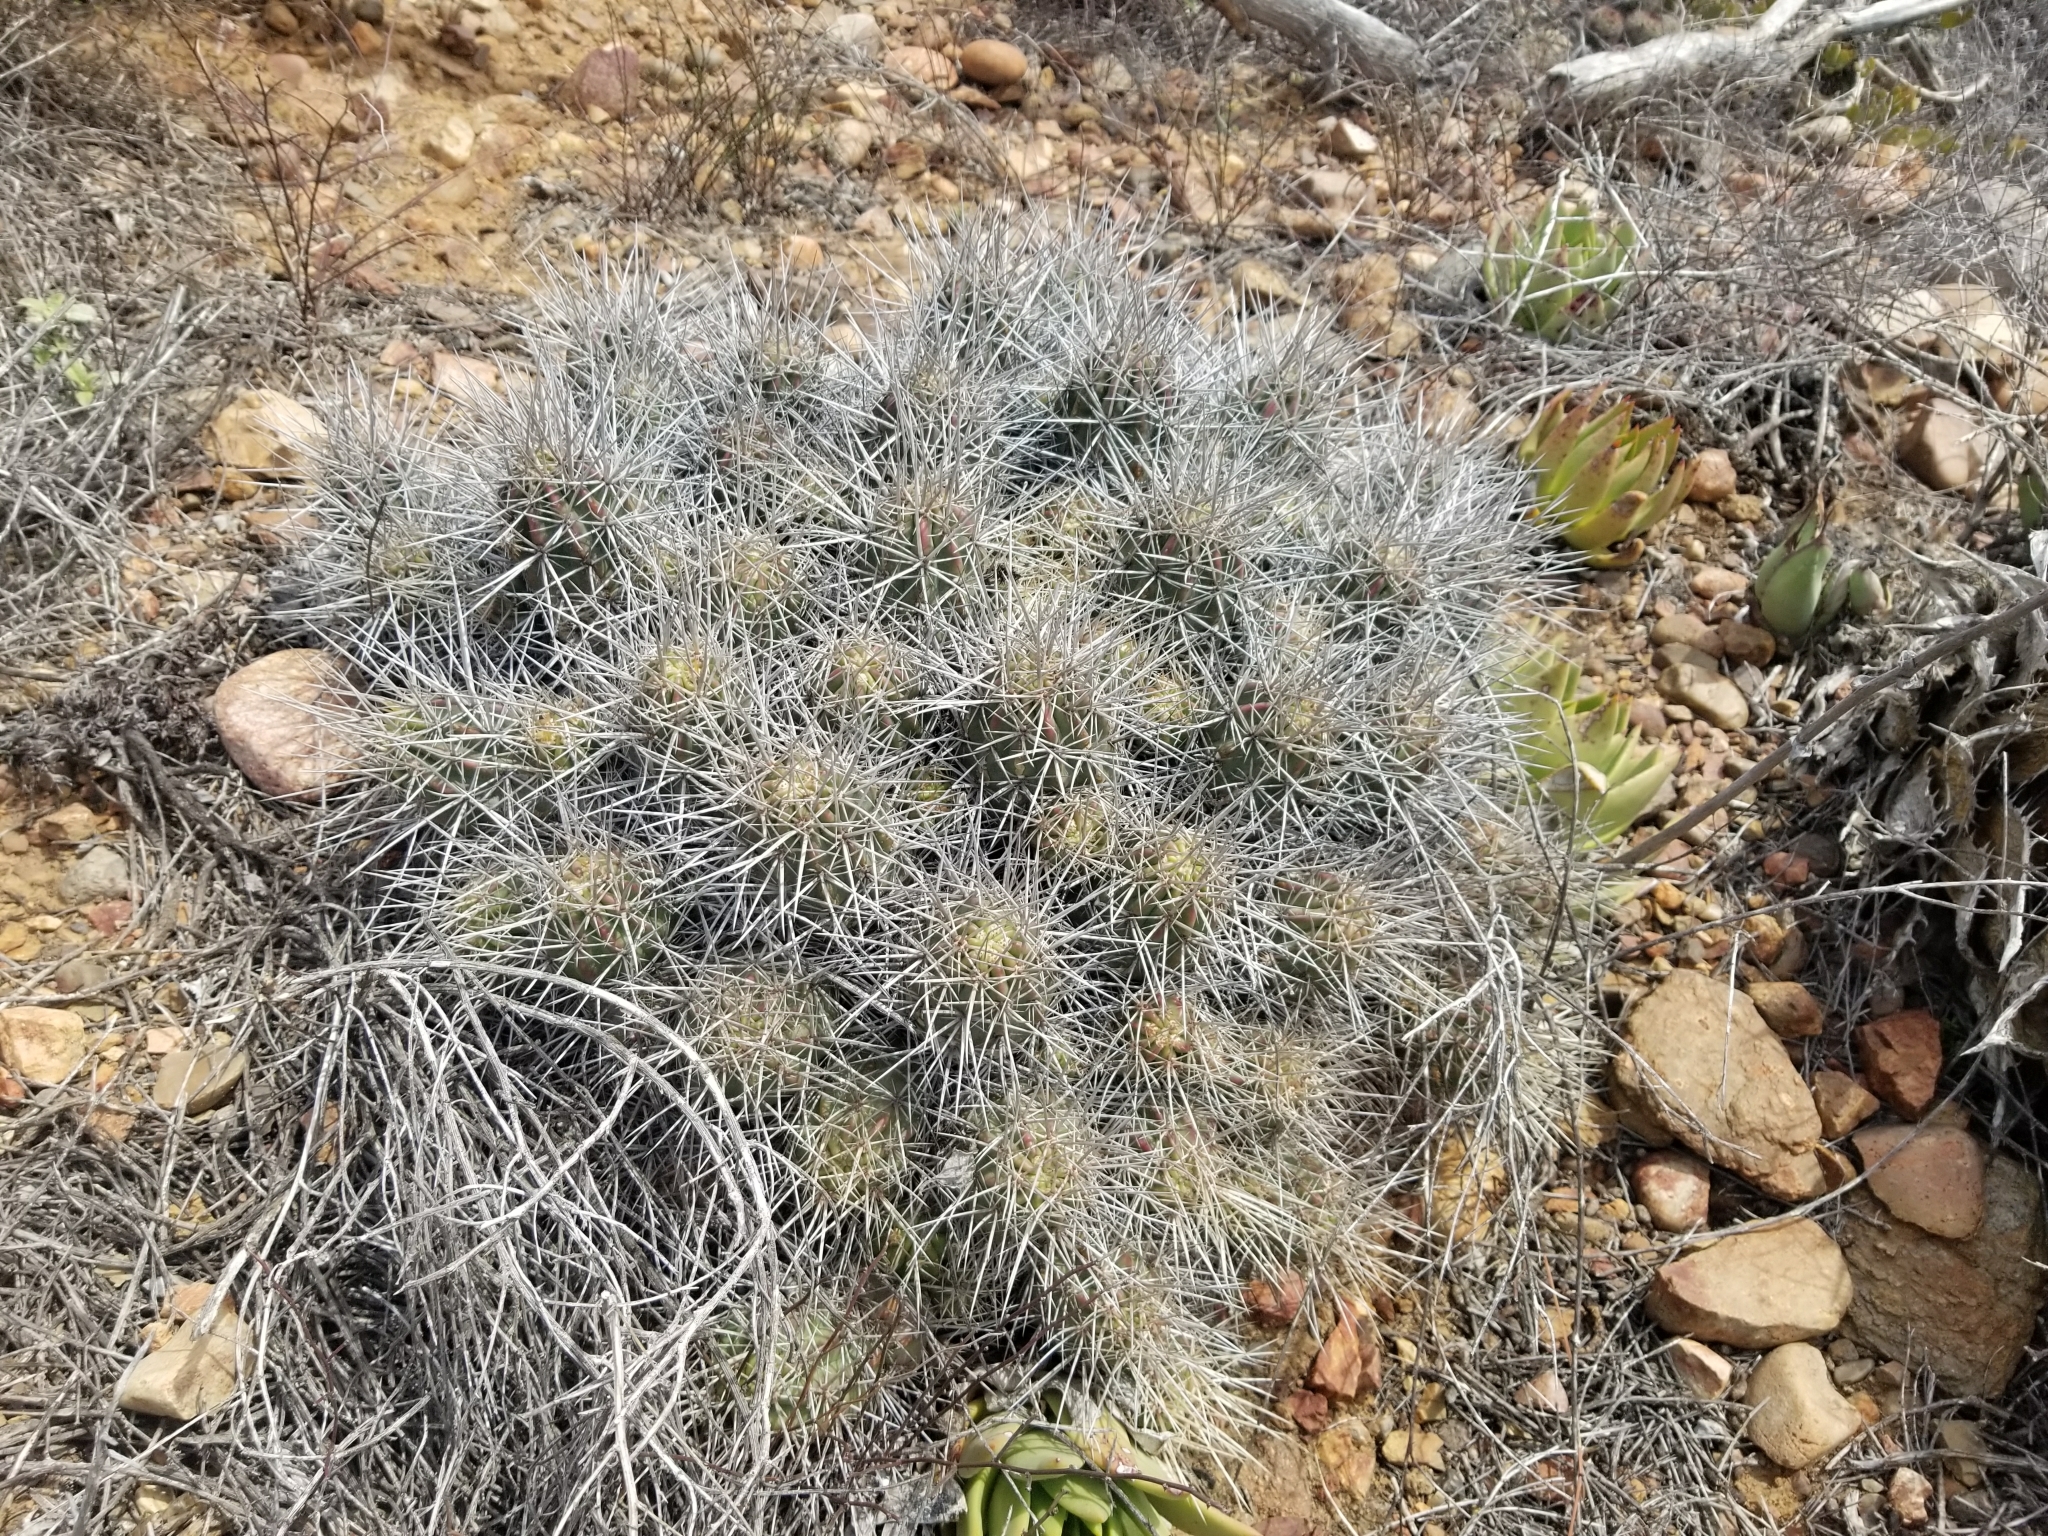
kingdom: Plantae
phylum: Tracheophyta
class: Magnoliopsida
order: Caryophyllales
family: Cactaceae
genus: Echinocereus
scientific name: Echinocereus maritimus
